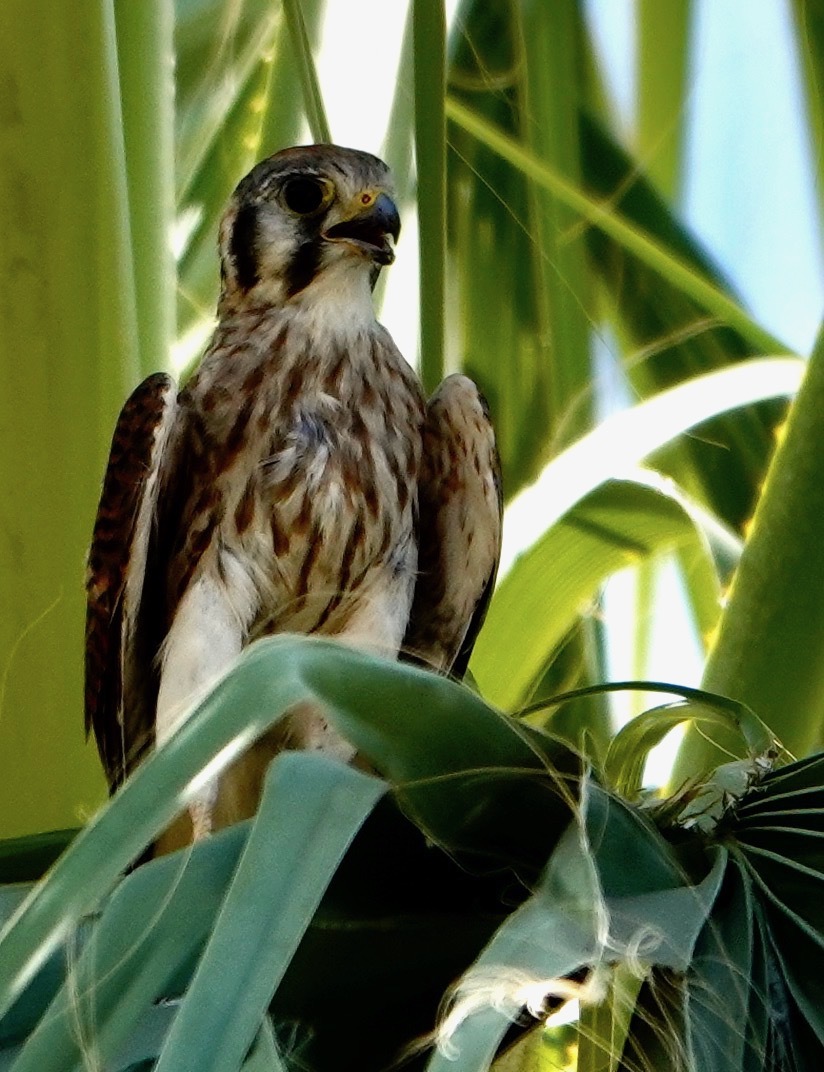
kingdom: Animalia
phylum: Chordata
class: Aves
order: Falconiformes
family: Falconidae
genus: Falco
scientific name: Falco sparverius
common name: American kestrel
